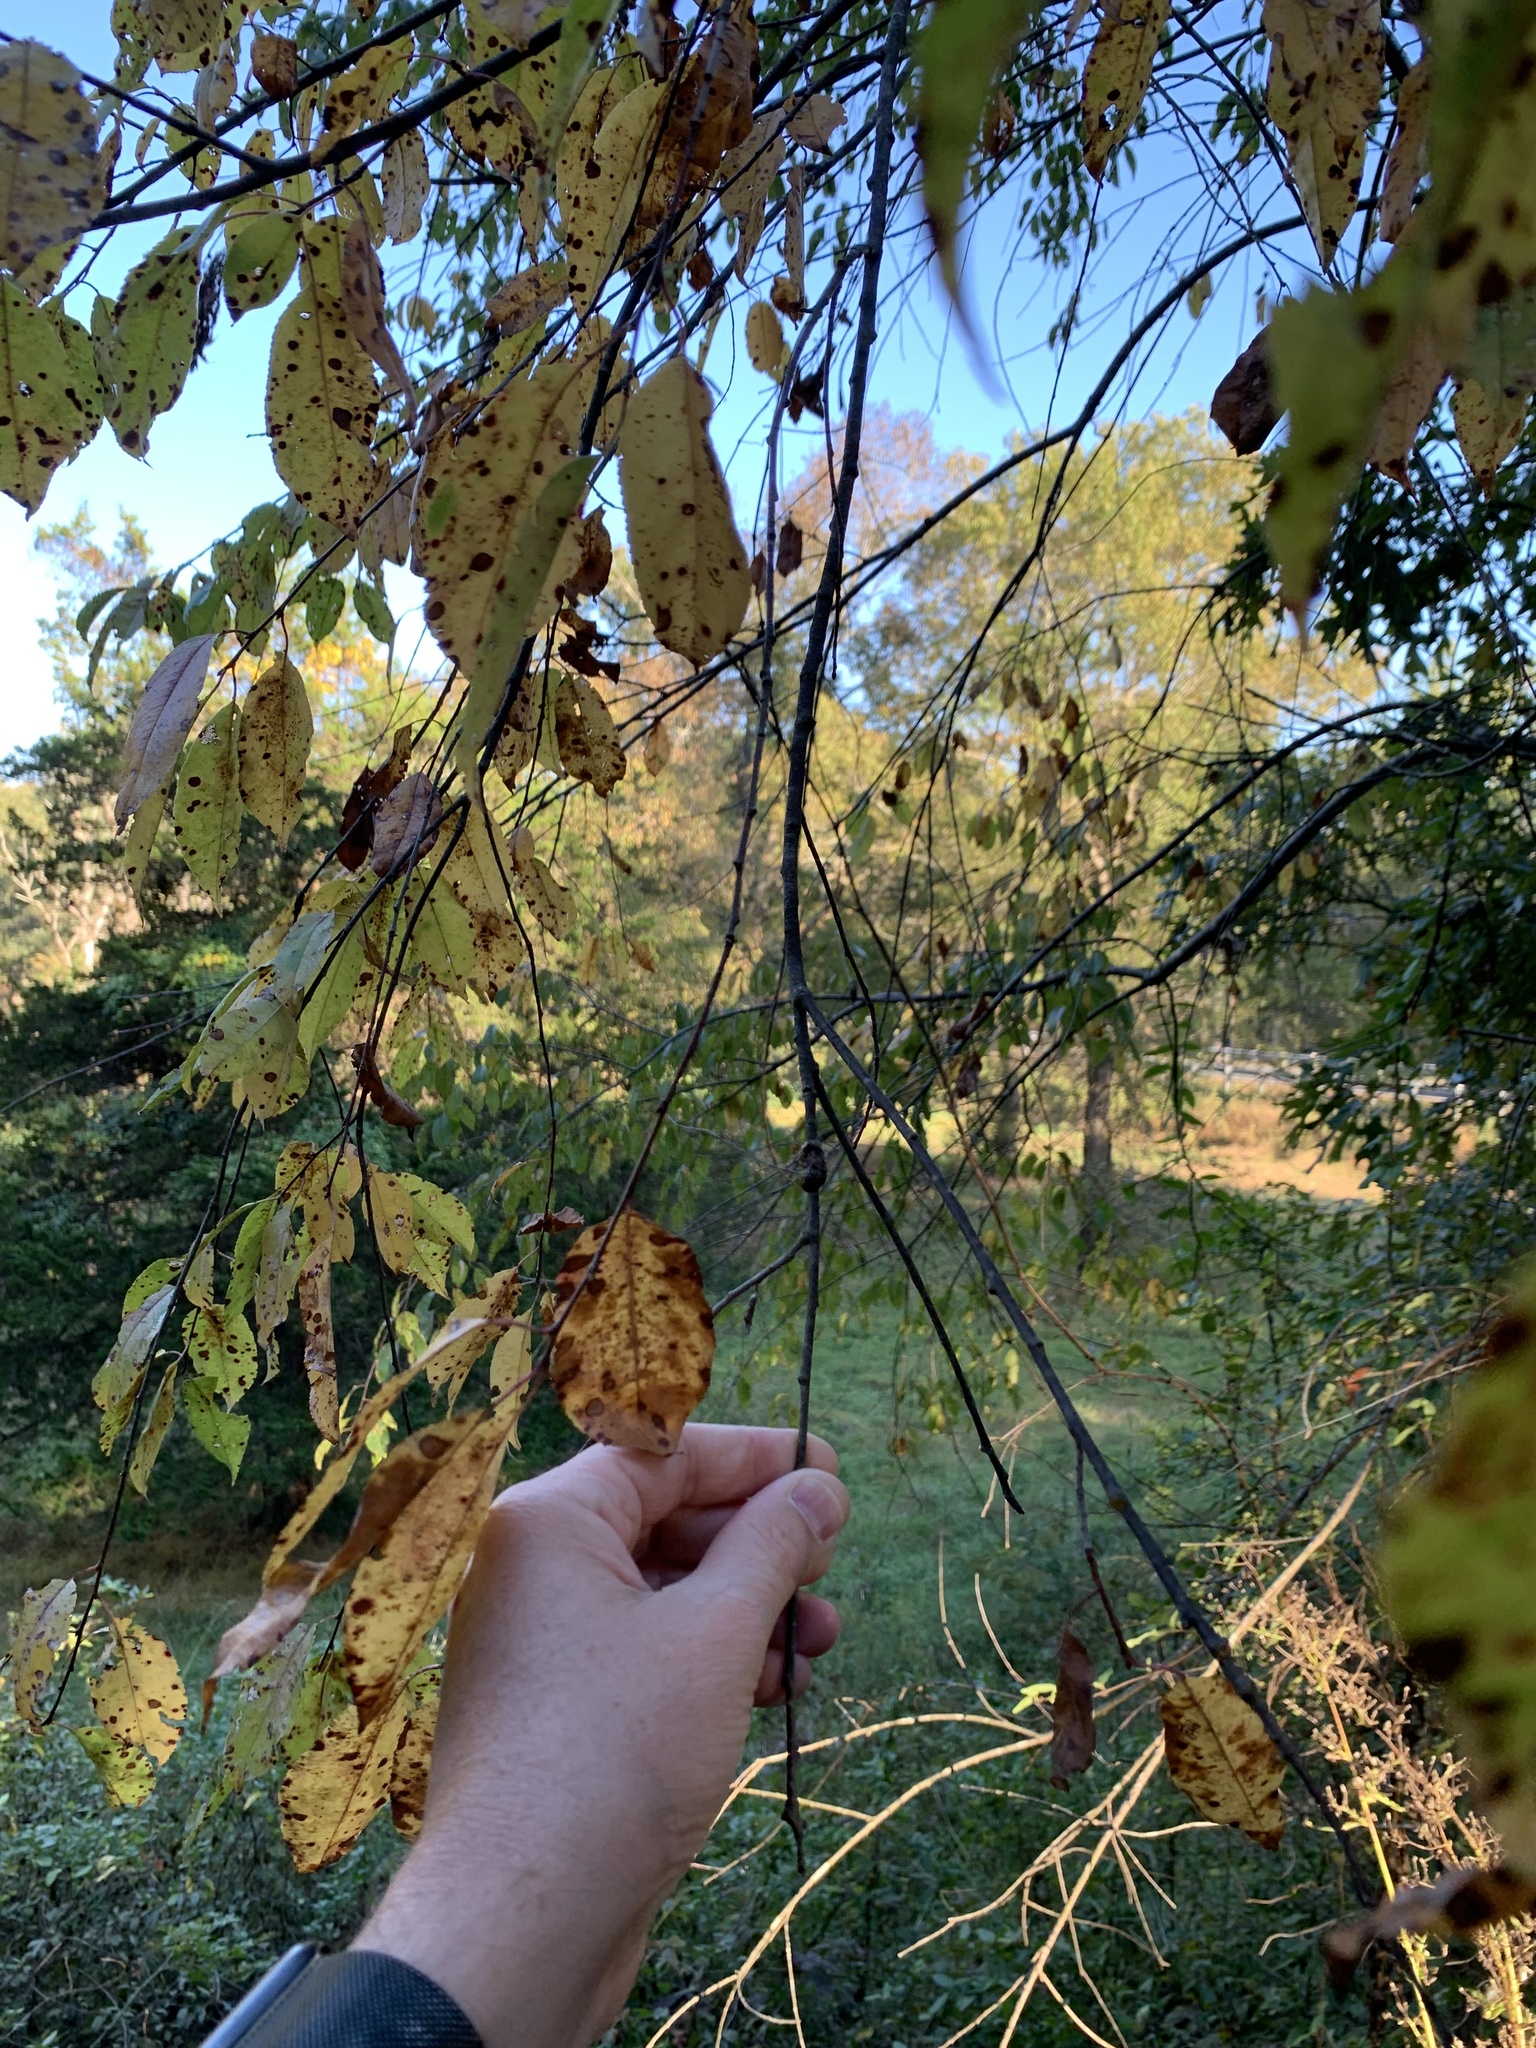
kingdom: Animalia
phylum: Arthropoda
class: Insecta
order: Lepidoptera
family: Lasiocampidae
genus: Malacosoma
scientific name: Malacosoma americana
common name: Eastern tent caterpillar moth
